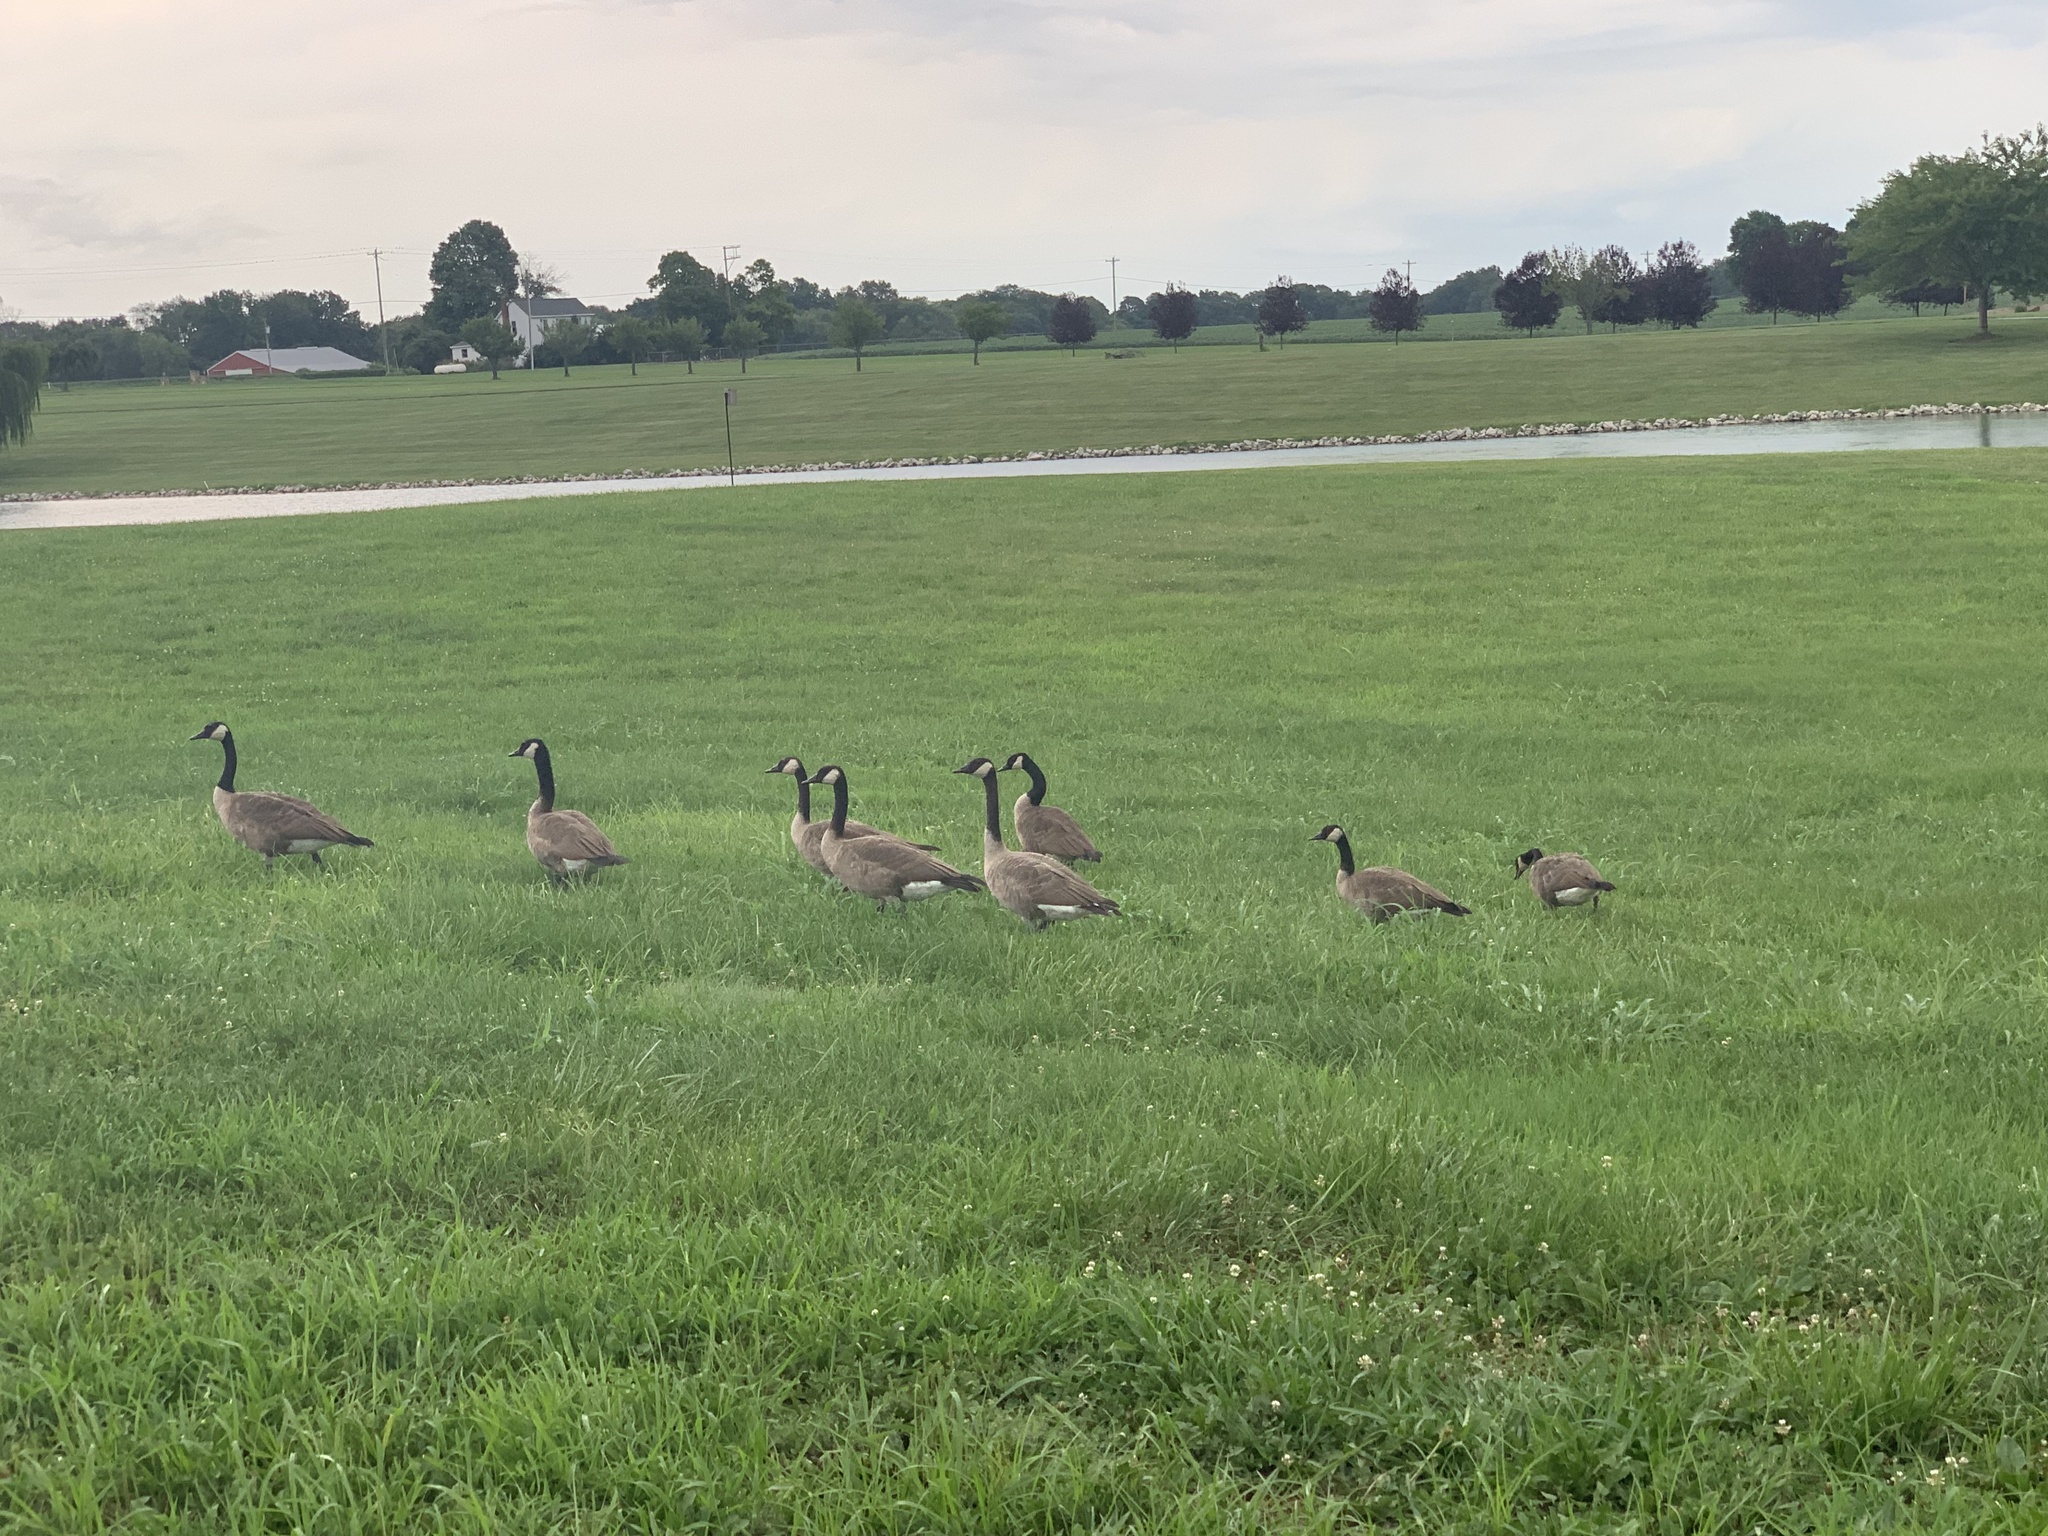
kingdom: Animalia
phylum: Chordata
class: Aves
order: Anseriformes
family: Anatidae
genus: Branta
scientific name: Branta canadensis
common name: Canada goose
